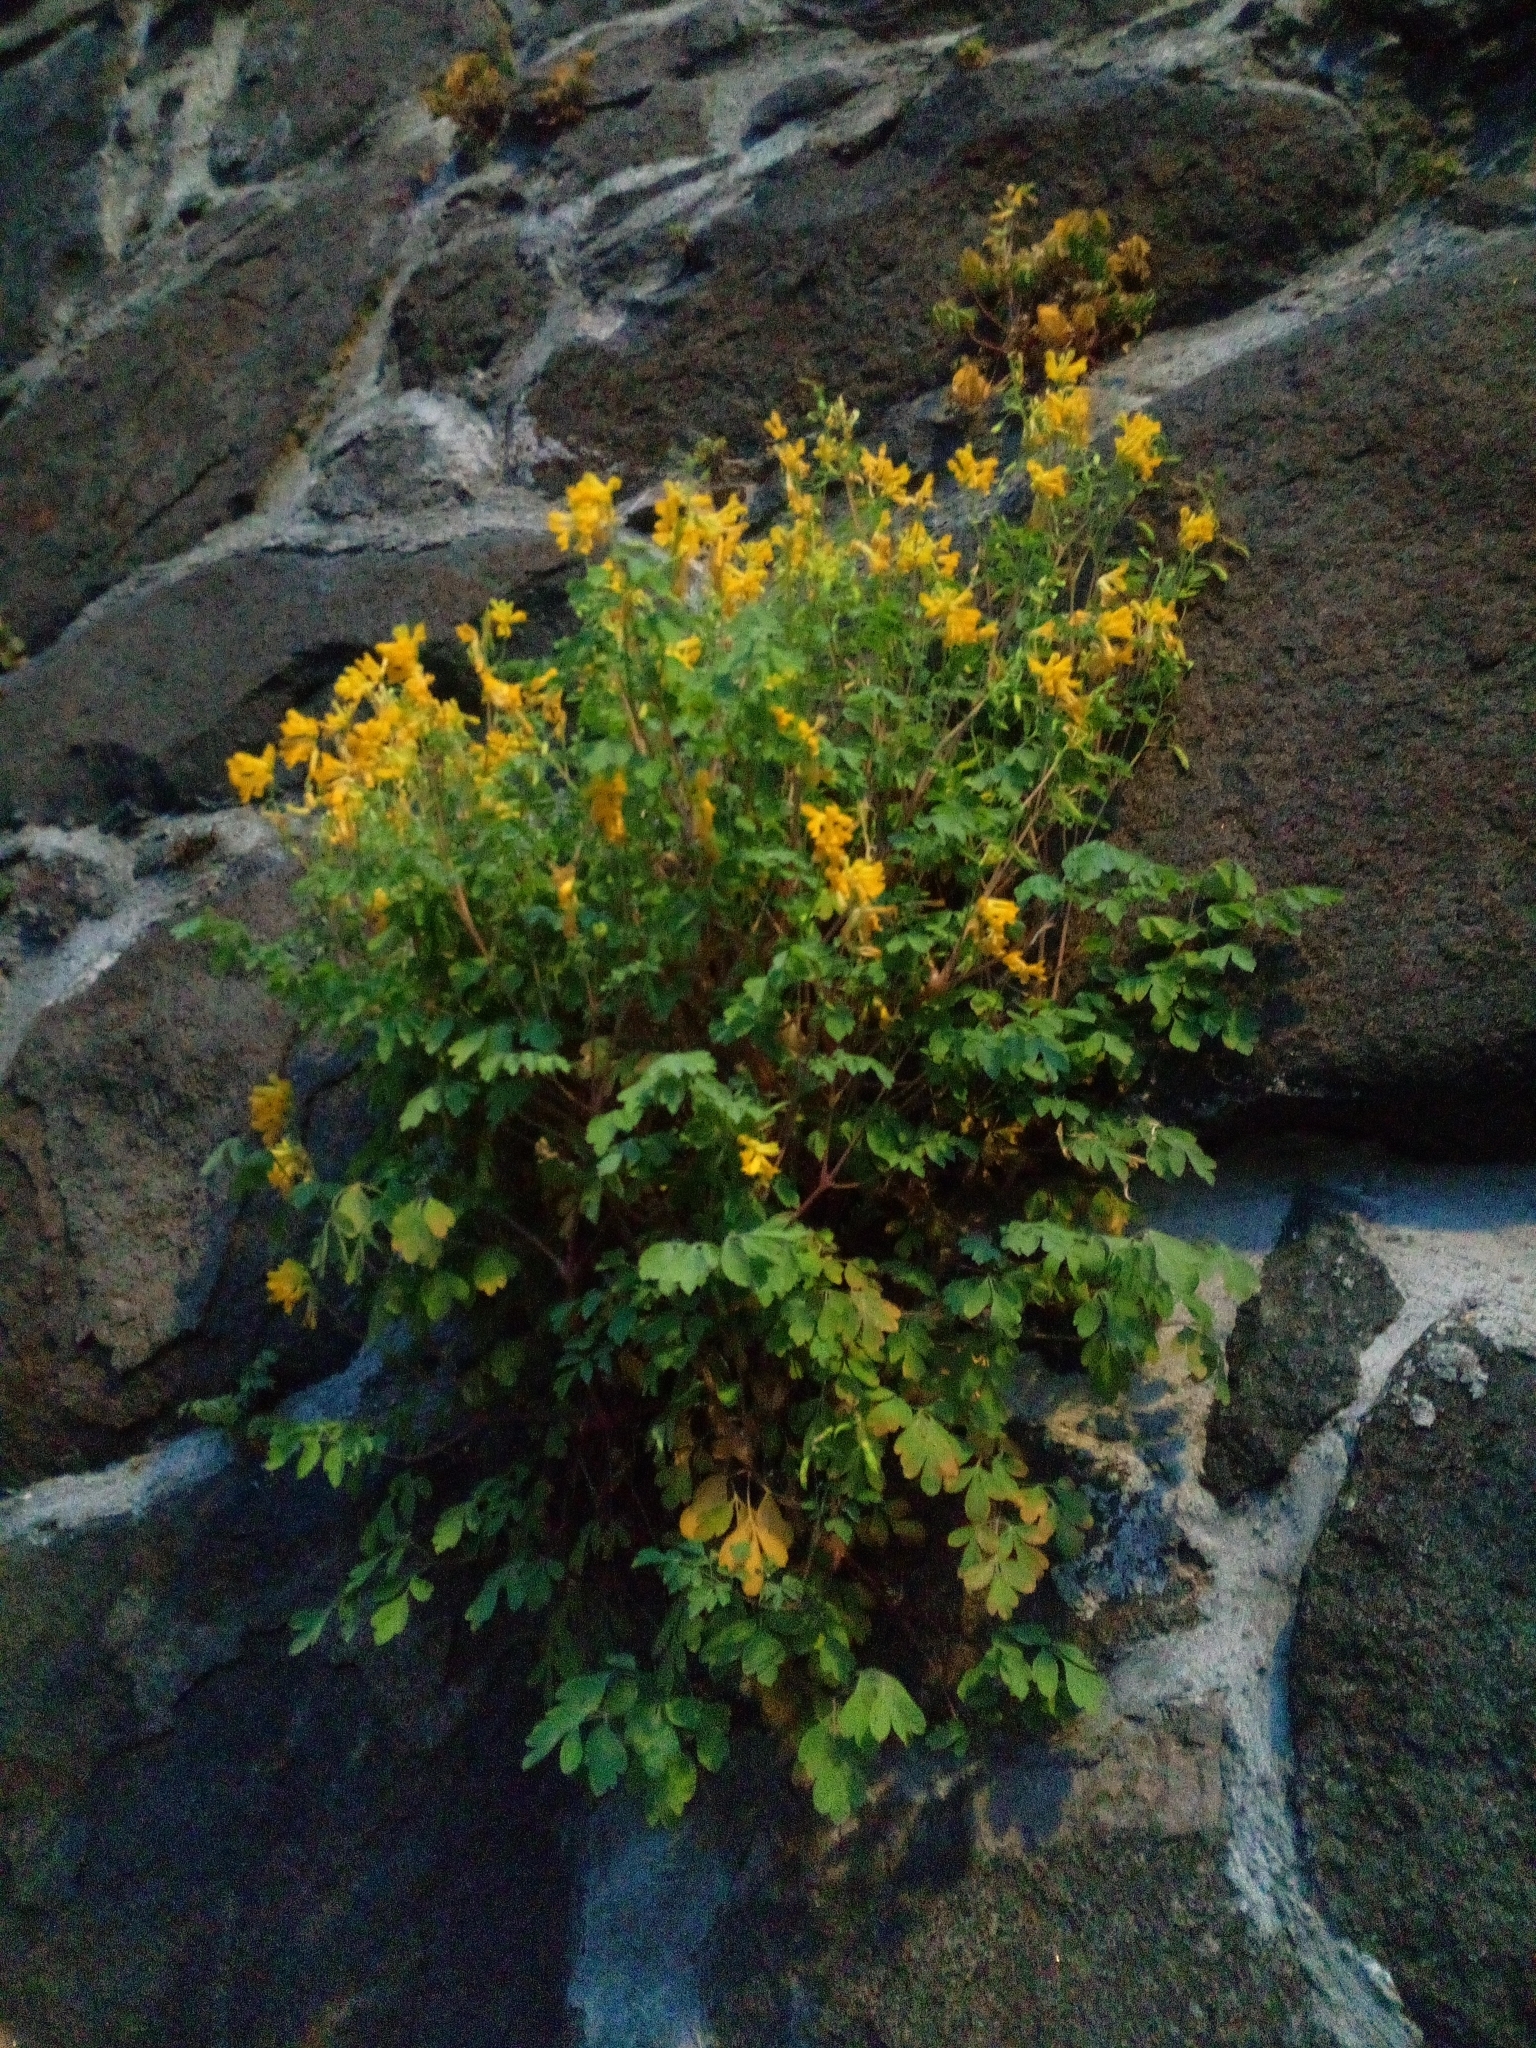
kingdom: Plantae
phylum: Tracheophyta
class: Magnoliopsida
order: Ranunculales
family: Papaveraceae
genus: Pseudofumaria
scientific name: Pseudofumaria lutea
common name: Yellow corydalis
